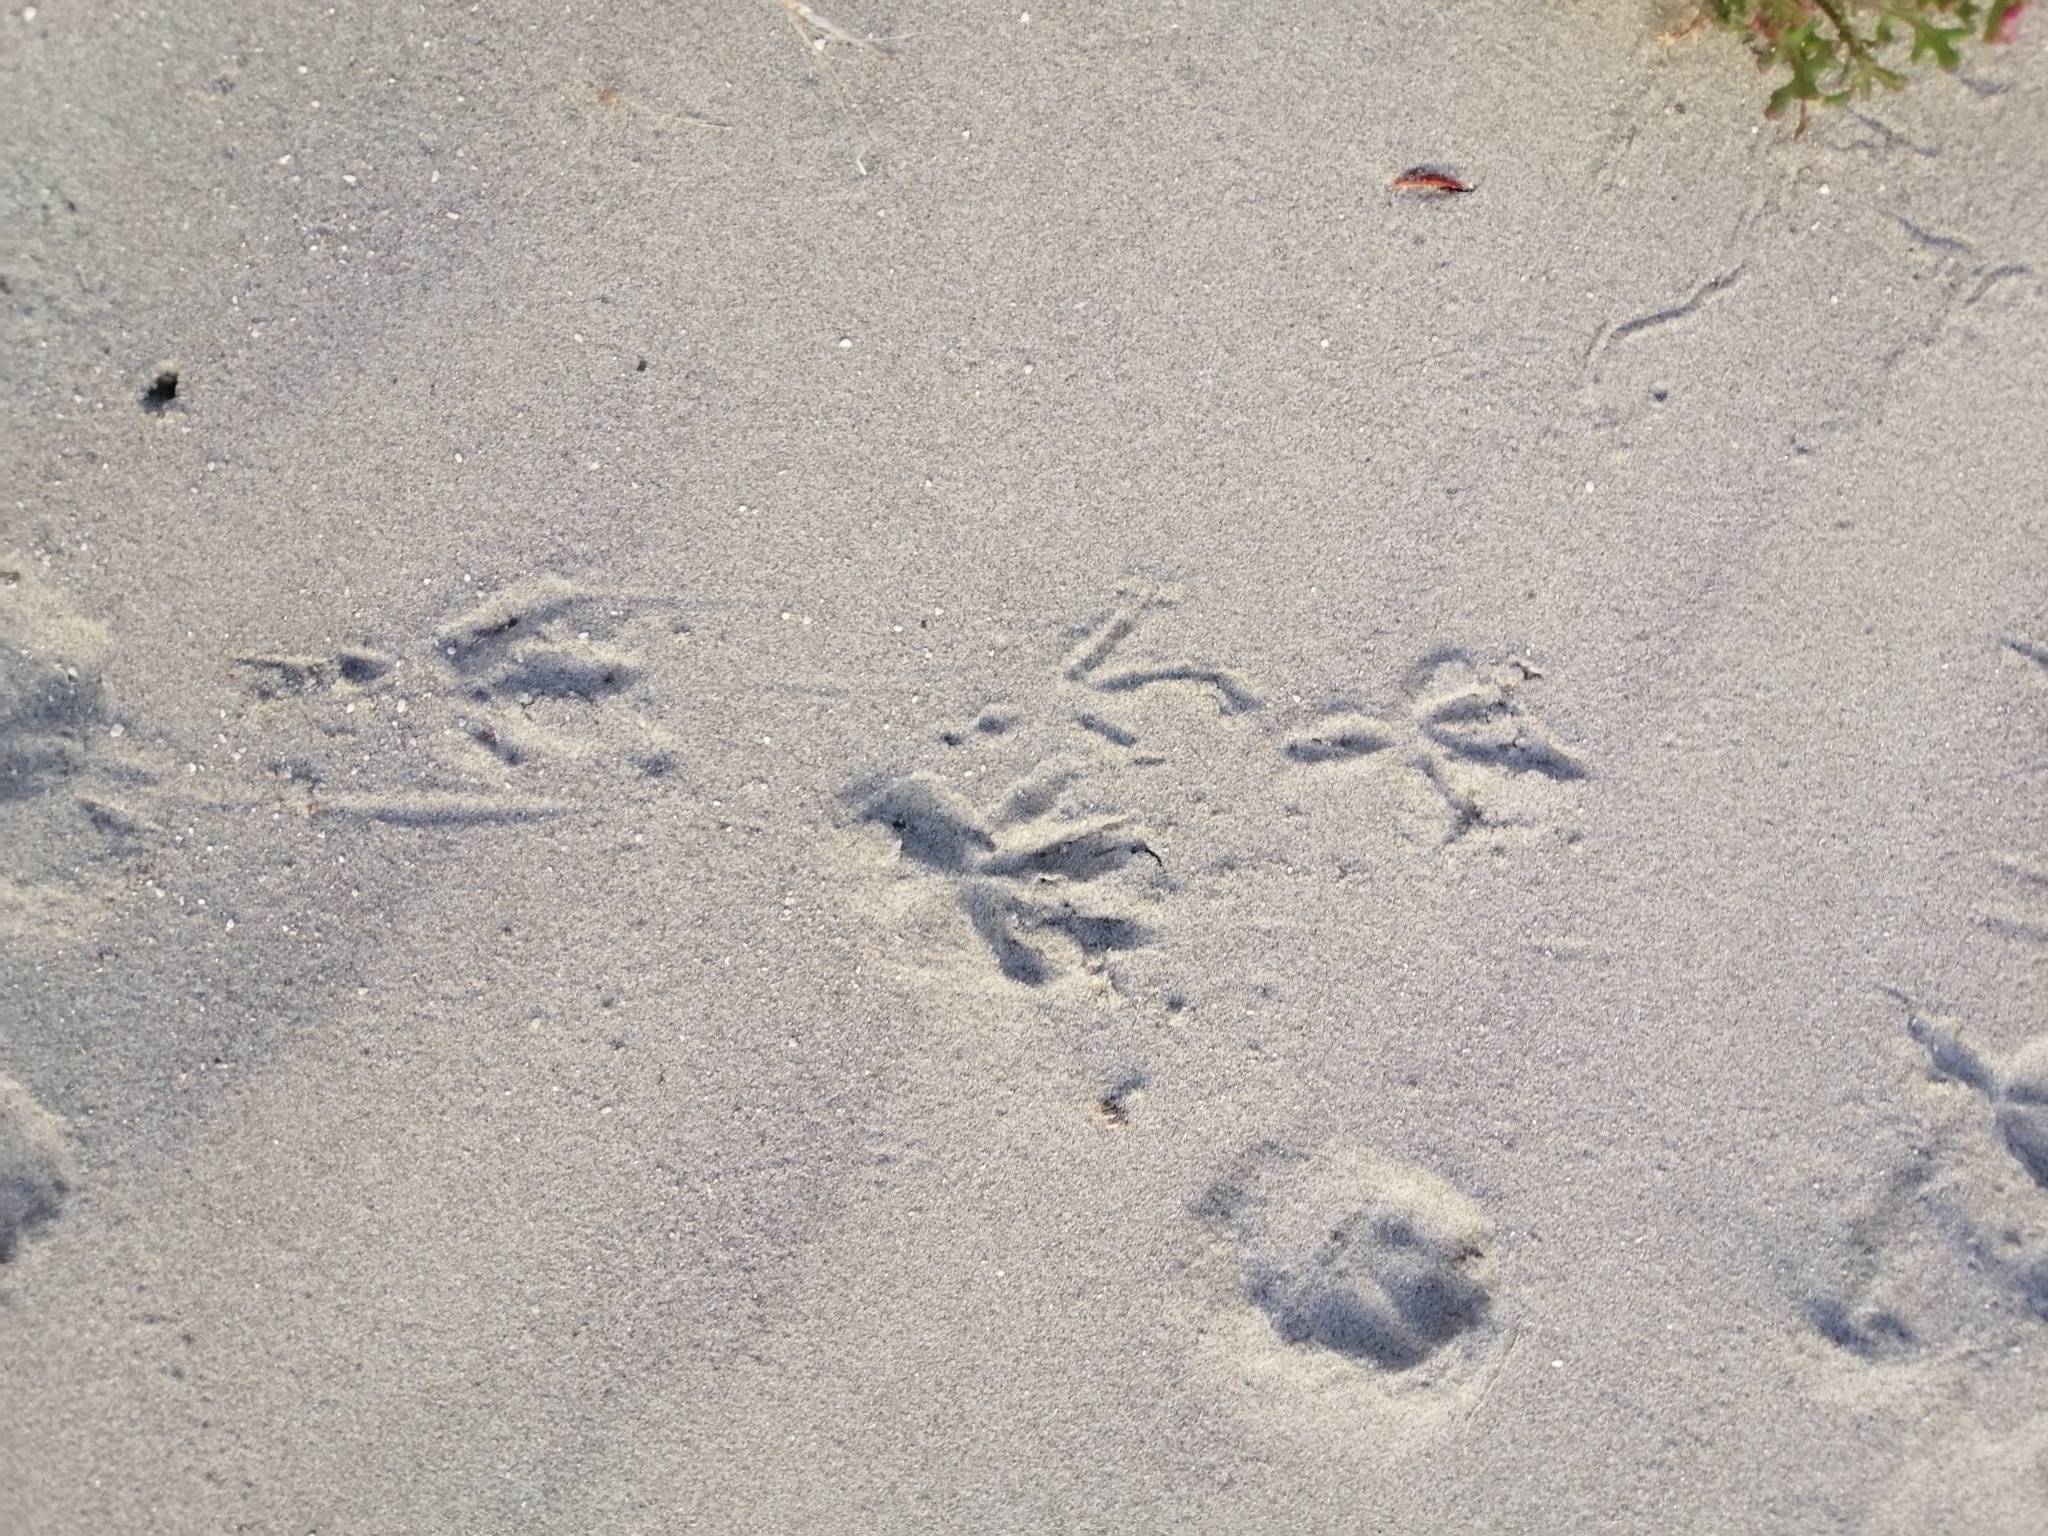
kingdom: Animalia
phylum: Chordata
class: Aves
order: Passeriformes
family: Turdidae
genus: Turdus
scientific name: Turdus merula
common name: Common blackbird
